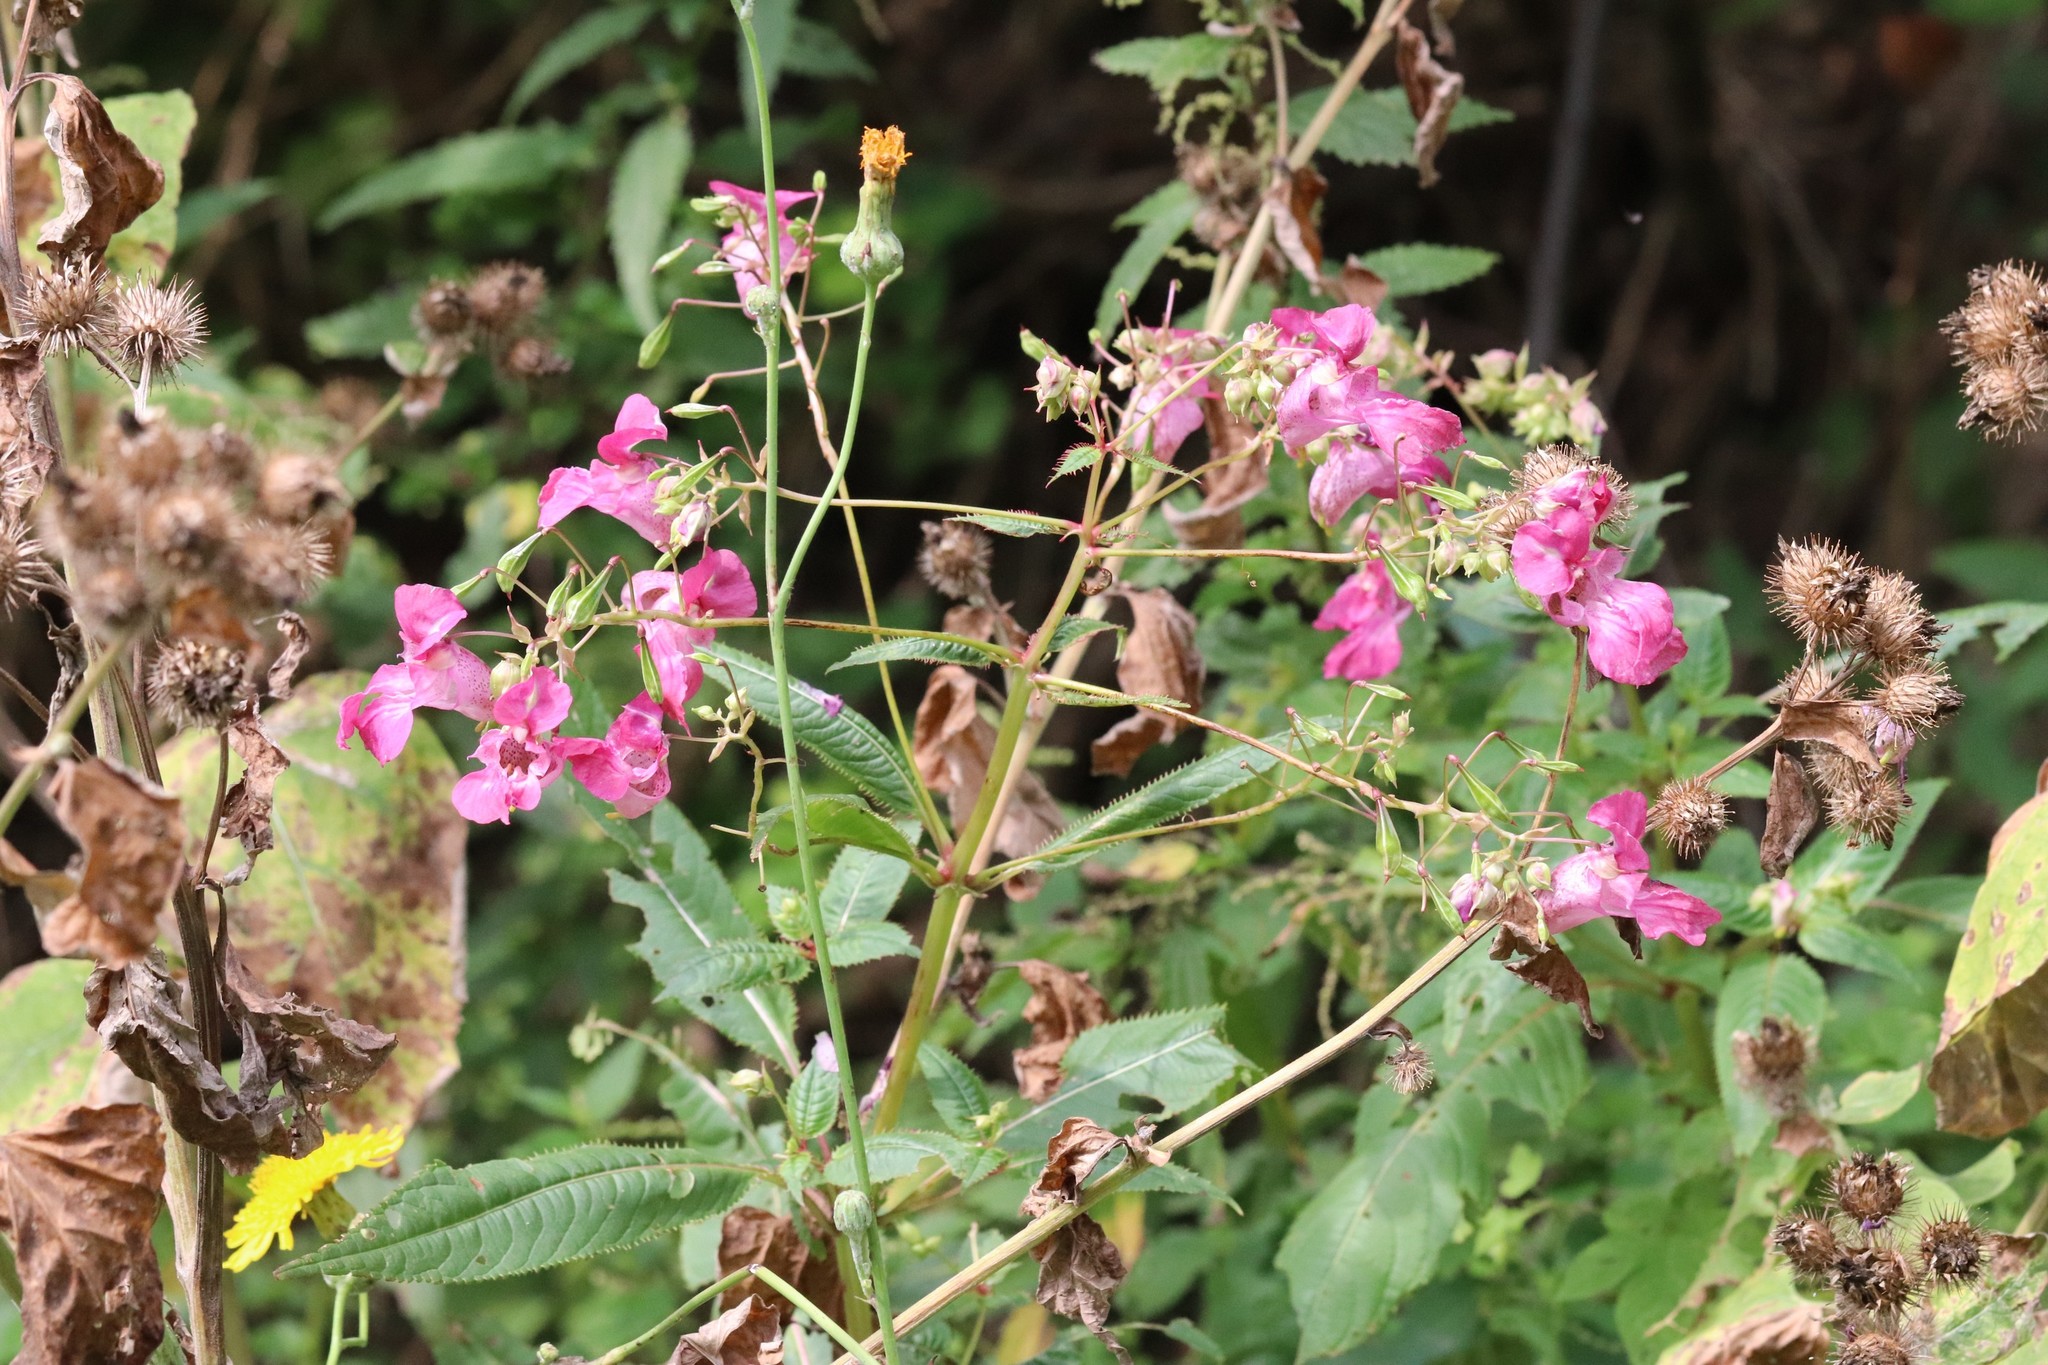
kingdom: Plantae
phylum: Tracheophyta
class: Magnoliopsida
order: Ericales
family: Balsaminaceae
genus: Impatiens
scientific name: Impatiens glandulifera
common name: Himalayan balsam
